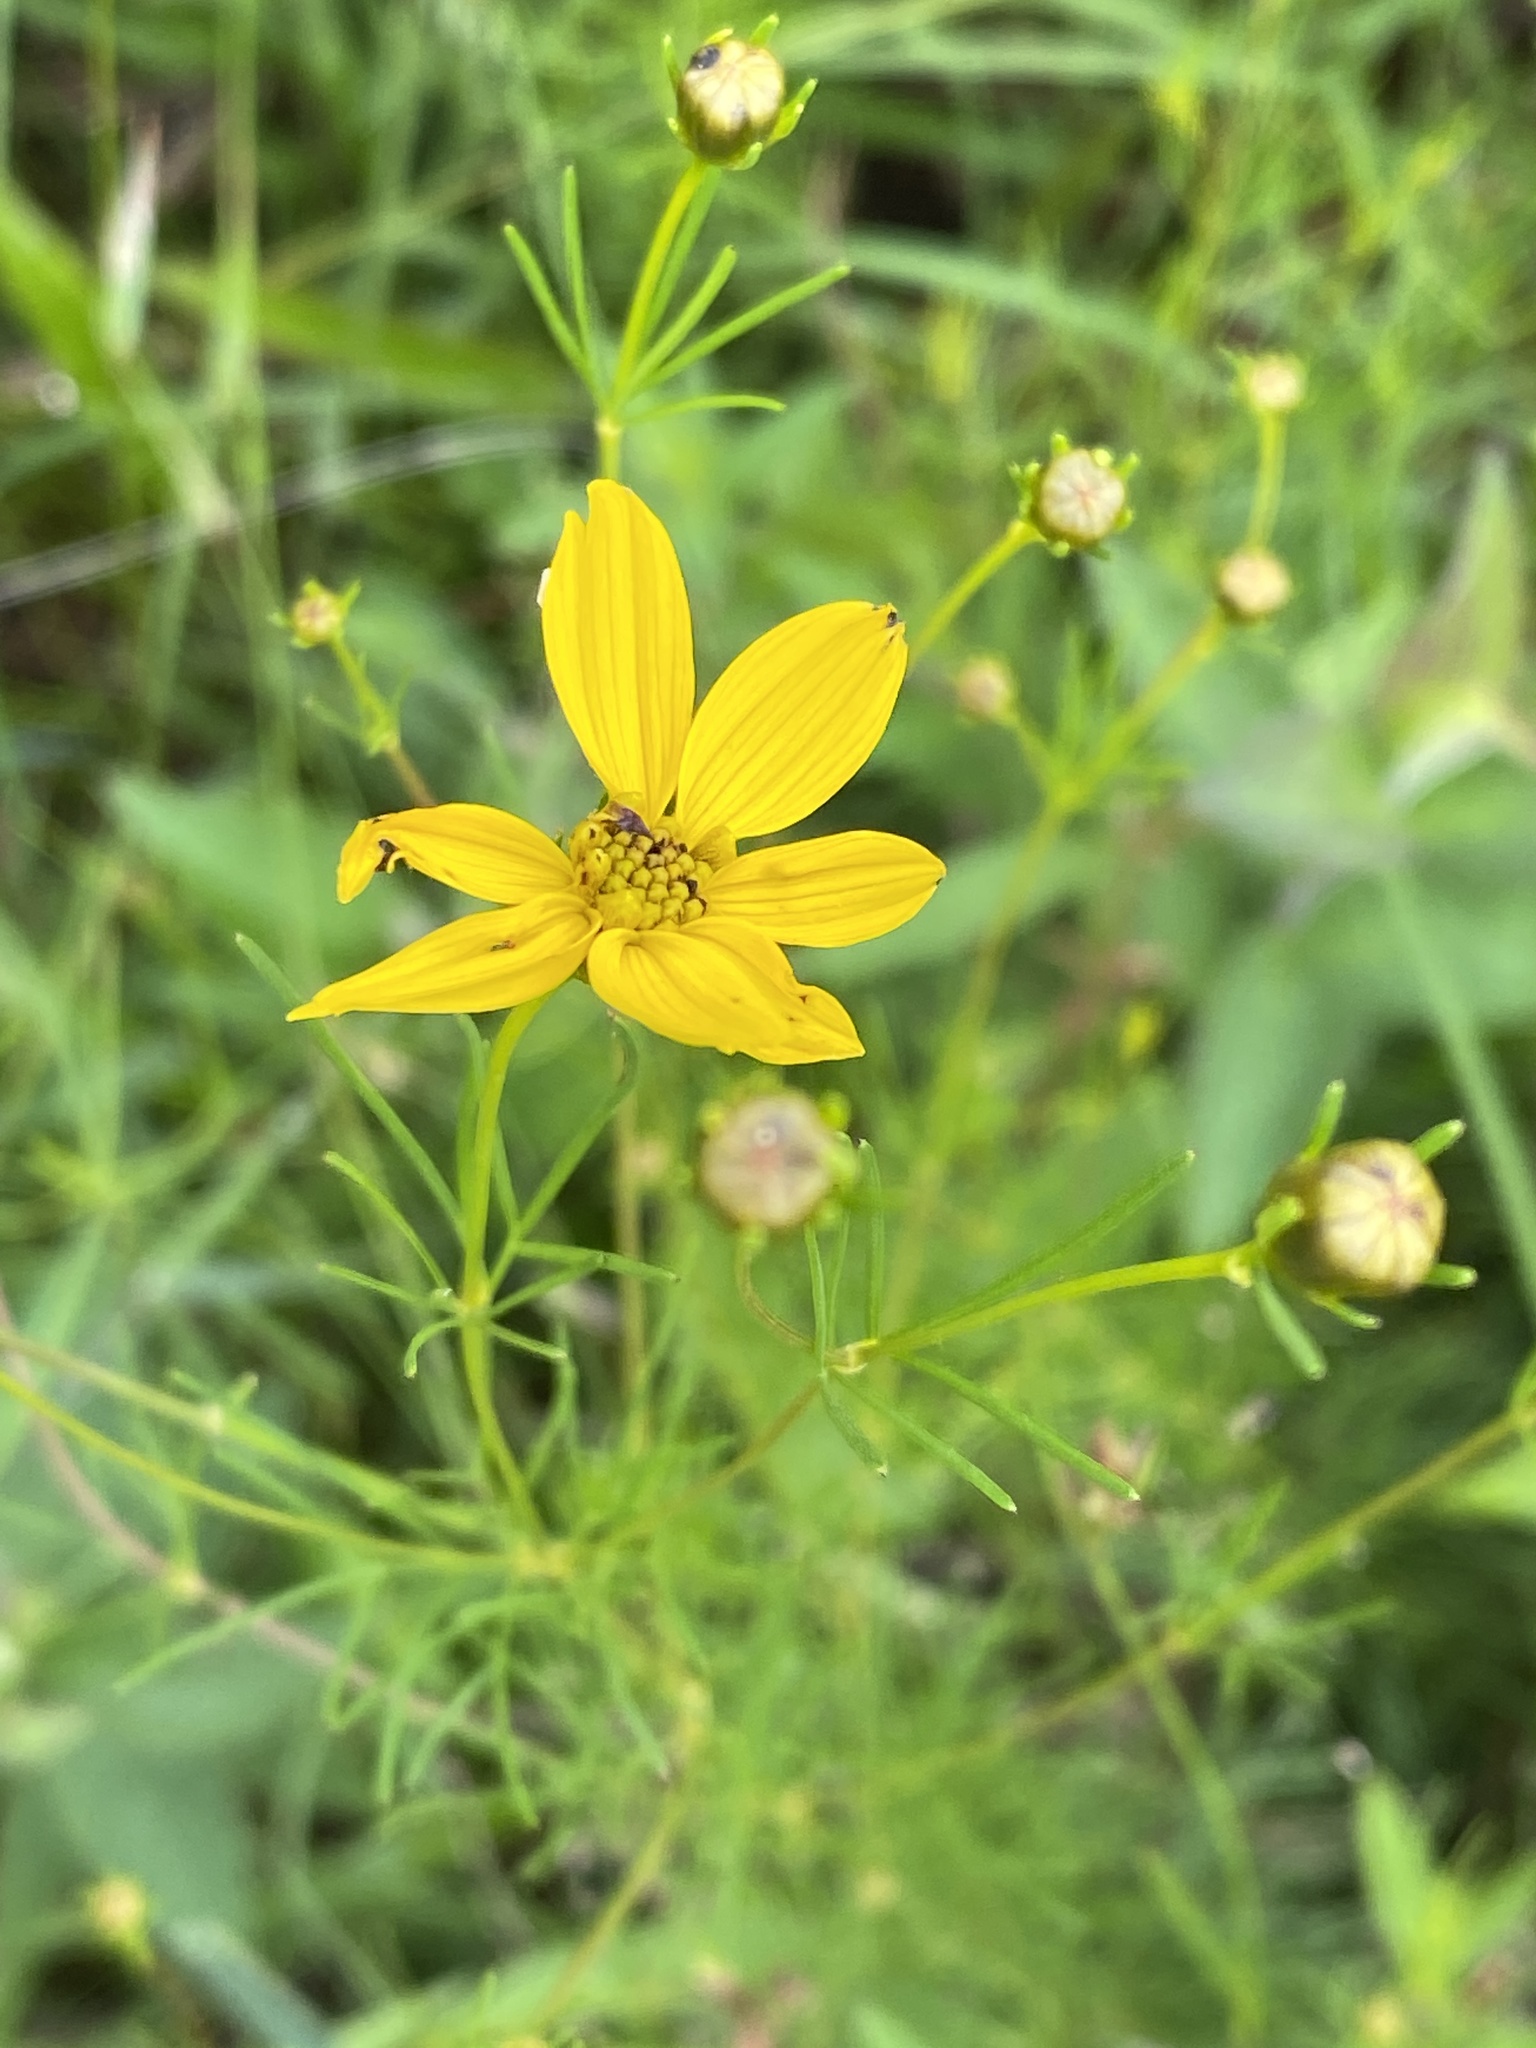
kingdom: Plantae
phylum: Tracheophyta
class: Magnoliopsida
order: Asterales
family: Asteraceae
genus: Coreopsis
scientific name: Coreopsis verticillata
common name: Whorled tickseed
